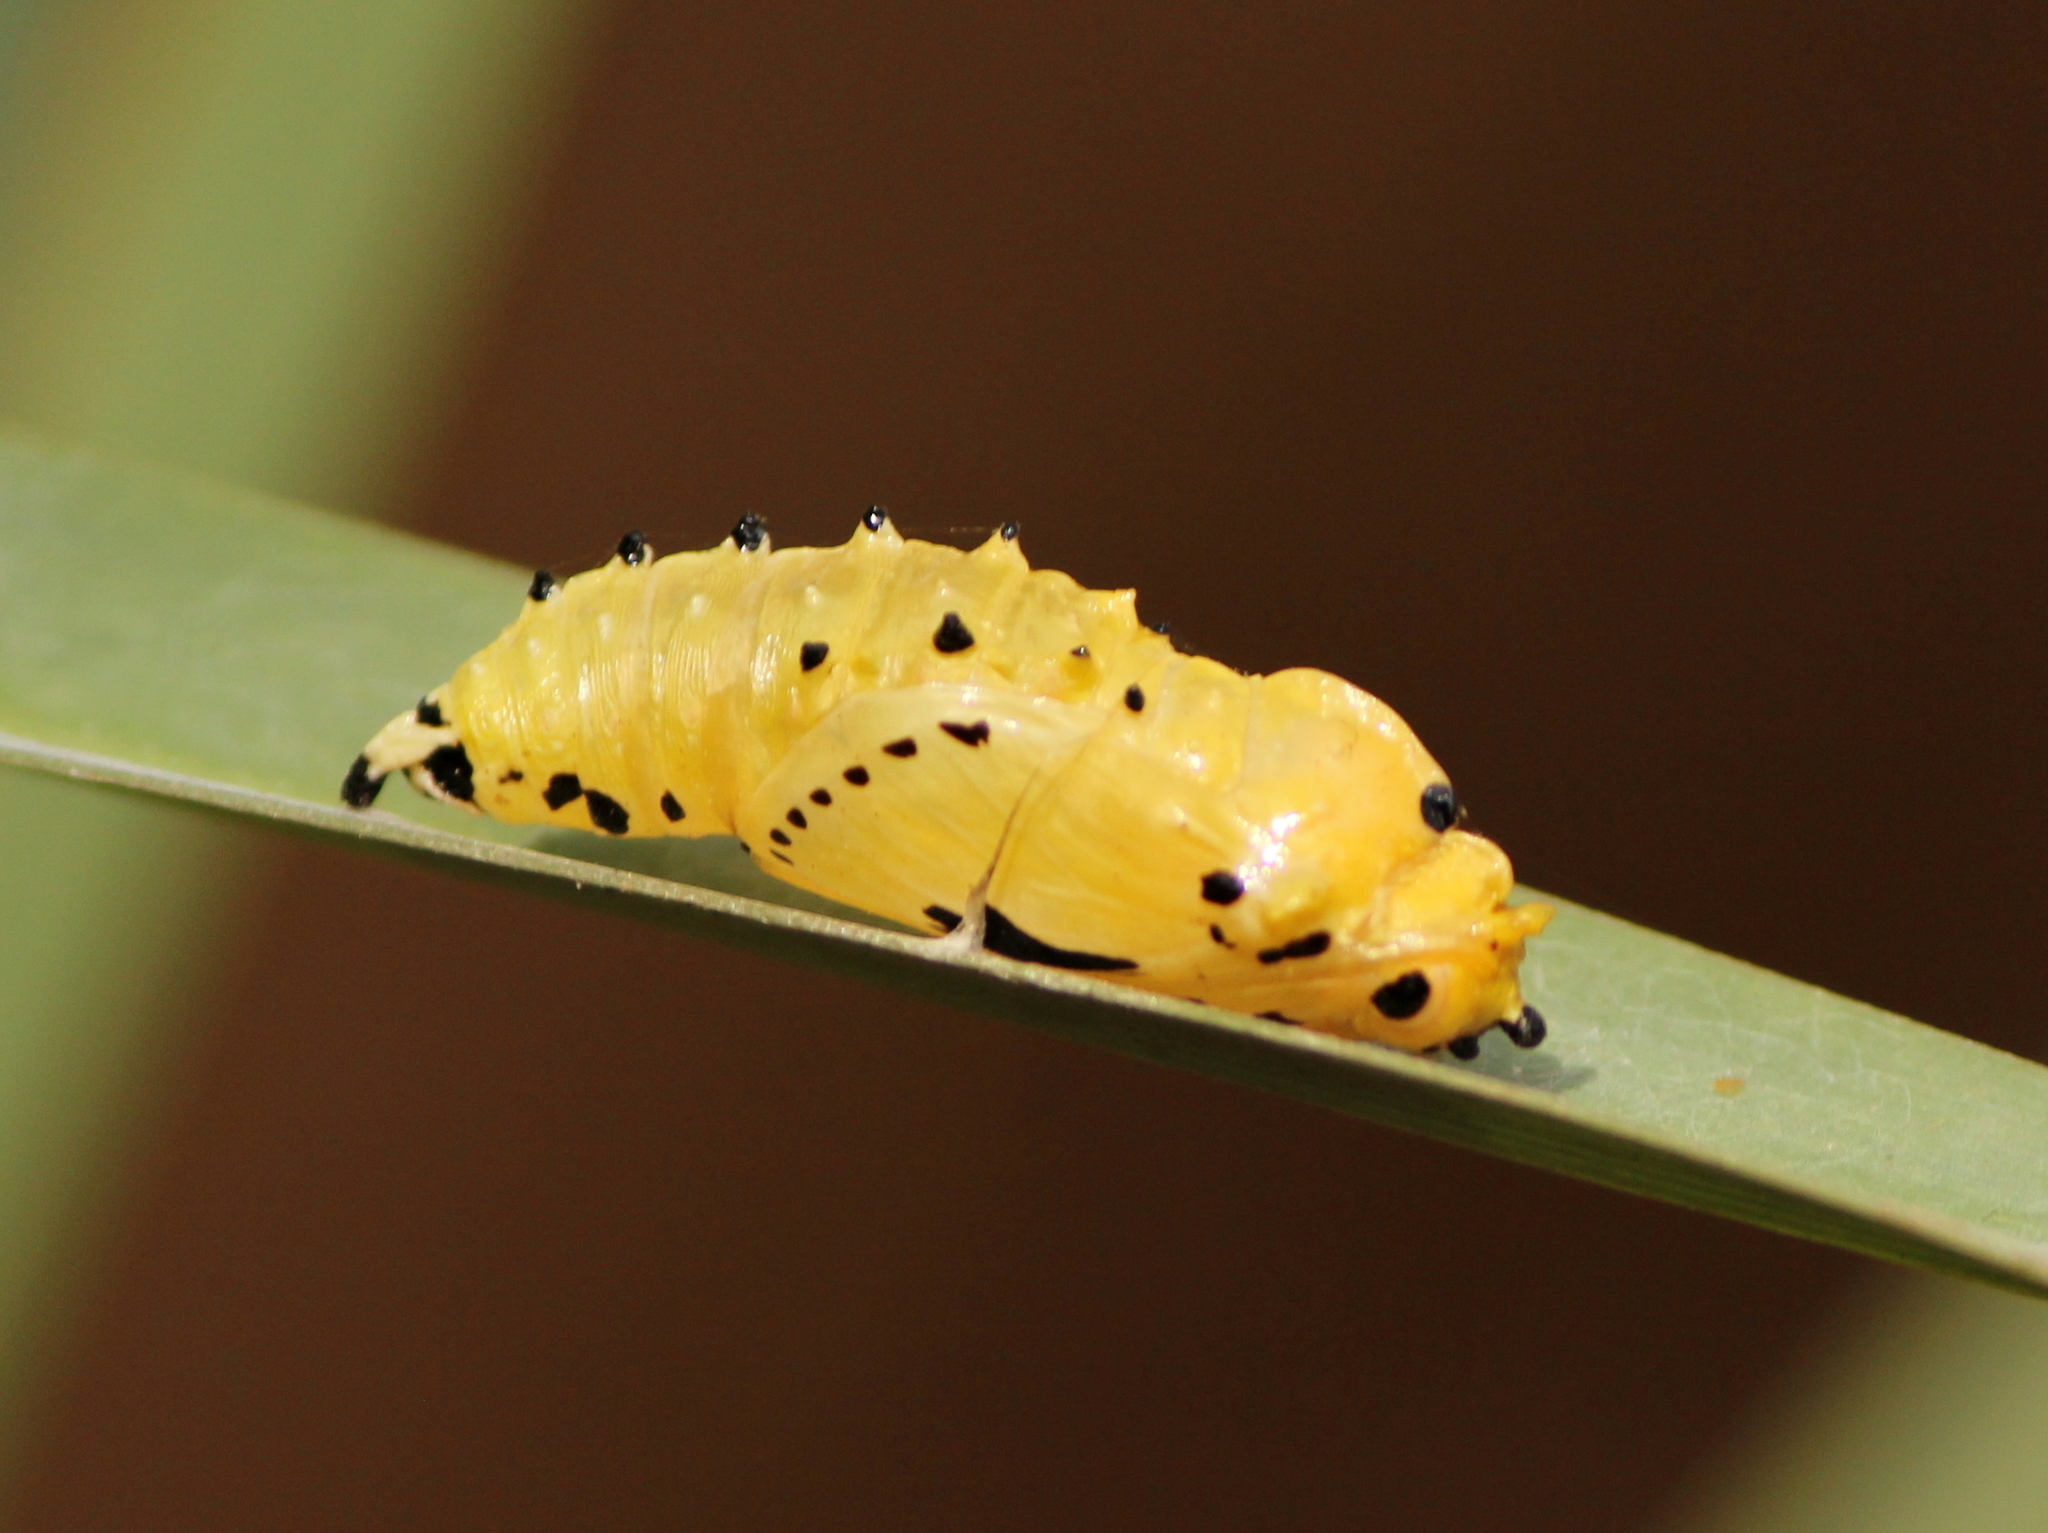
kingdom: Animalia
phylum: Arthropoda
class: Insecta
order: Lepidoptera
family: Lycaenidae
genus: Euchrysops
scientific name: Euchrysops cnejus
